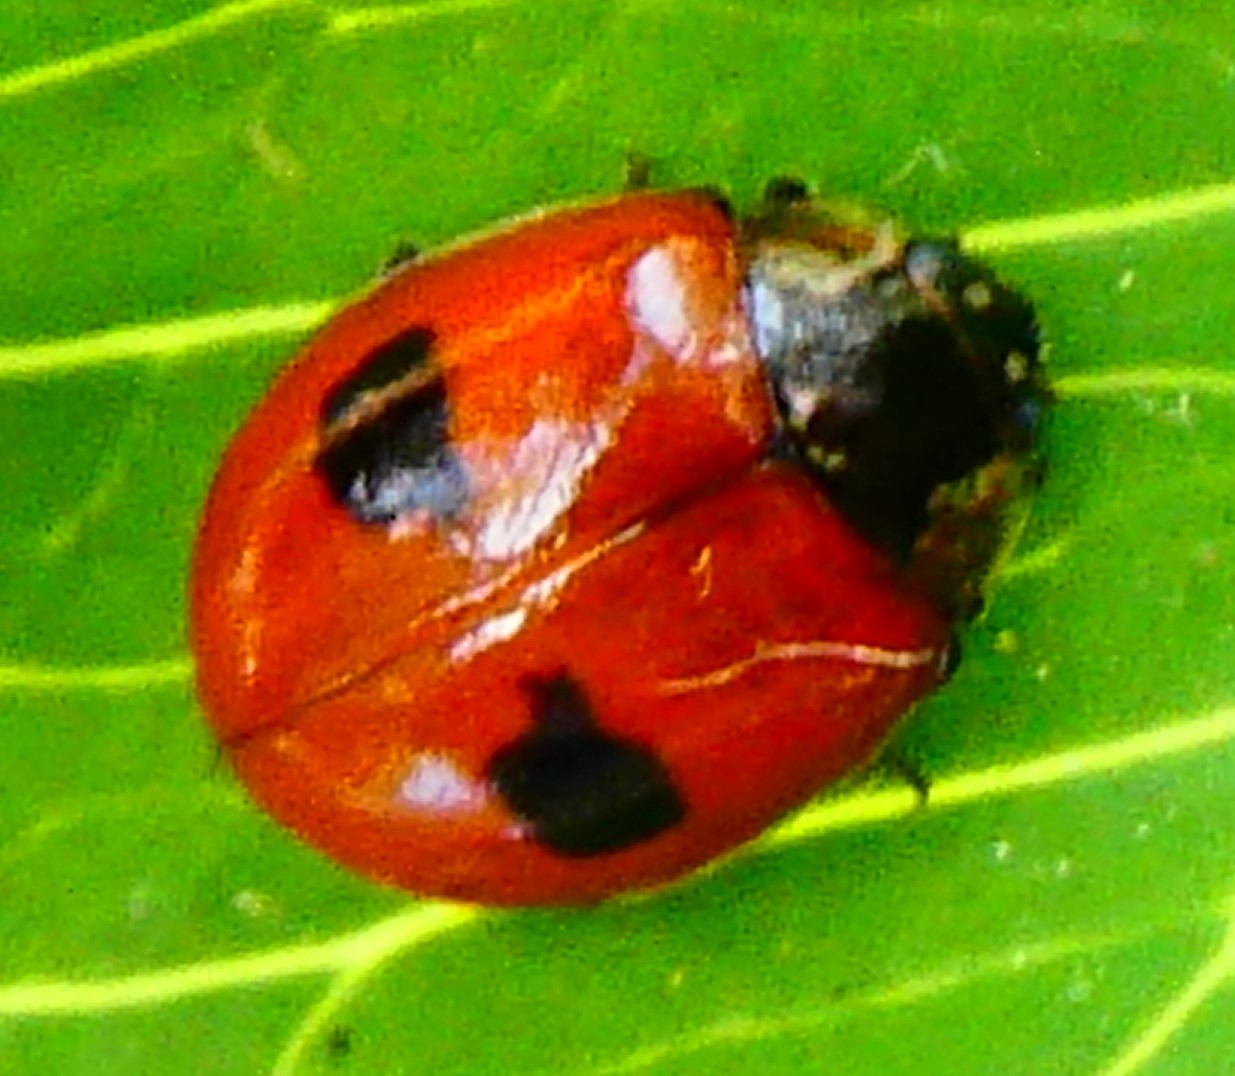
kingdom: Animalia
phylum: Arthropoda
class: Insecta
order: Coleoptera
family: Coccinellidae
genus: Adalia
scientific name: Adalia bipunctata
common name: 2-spot ladybird
